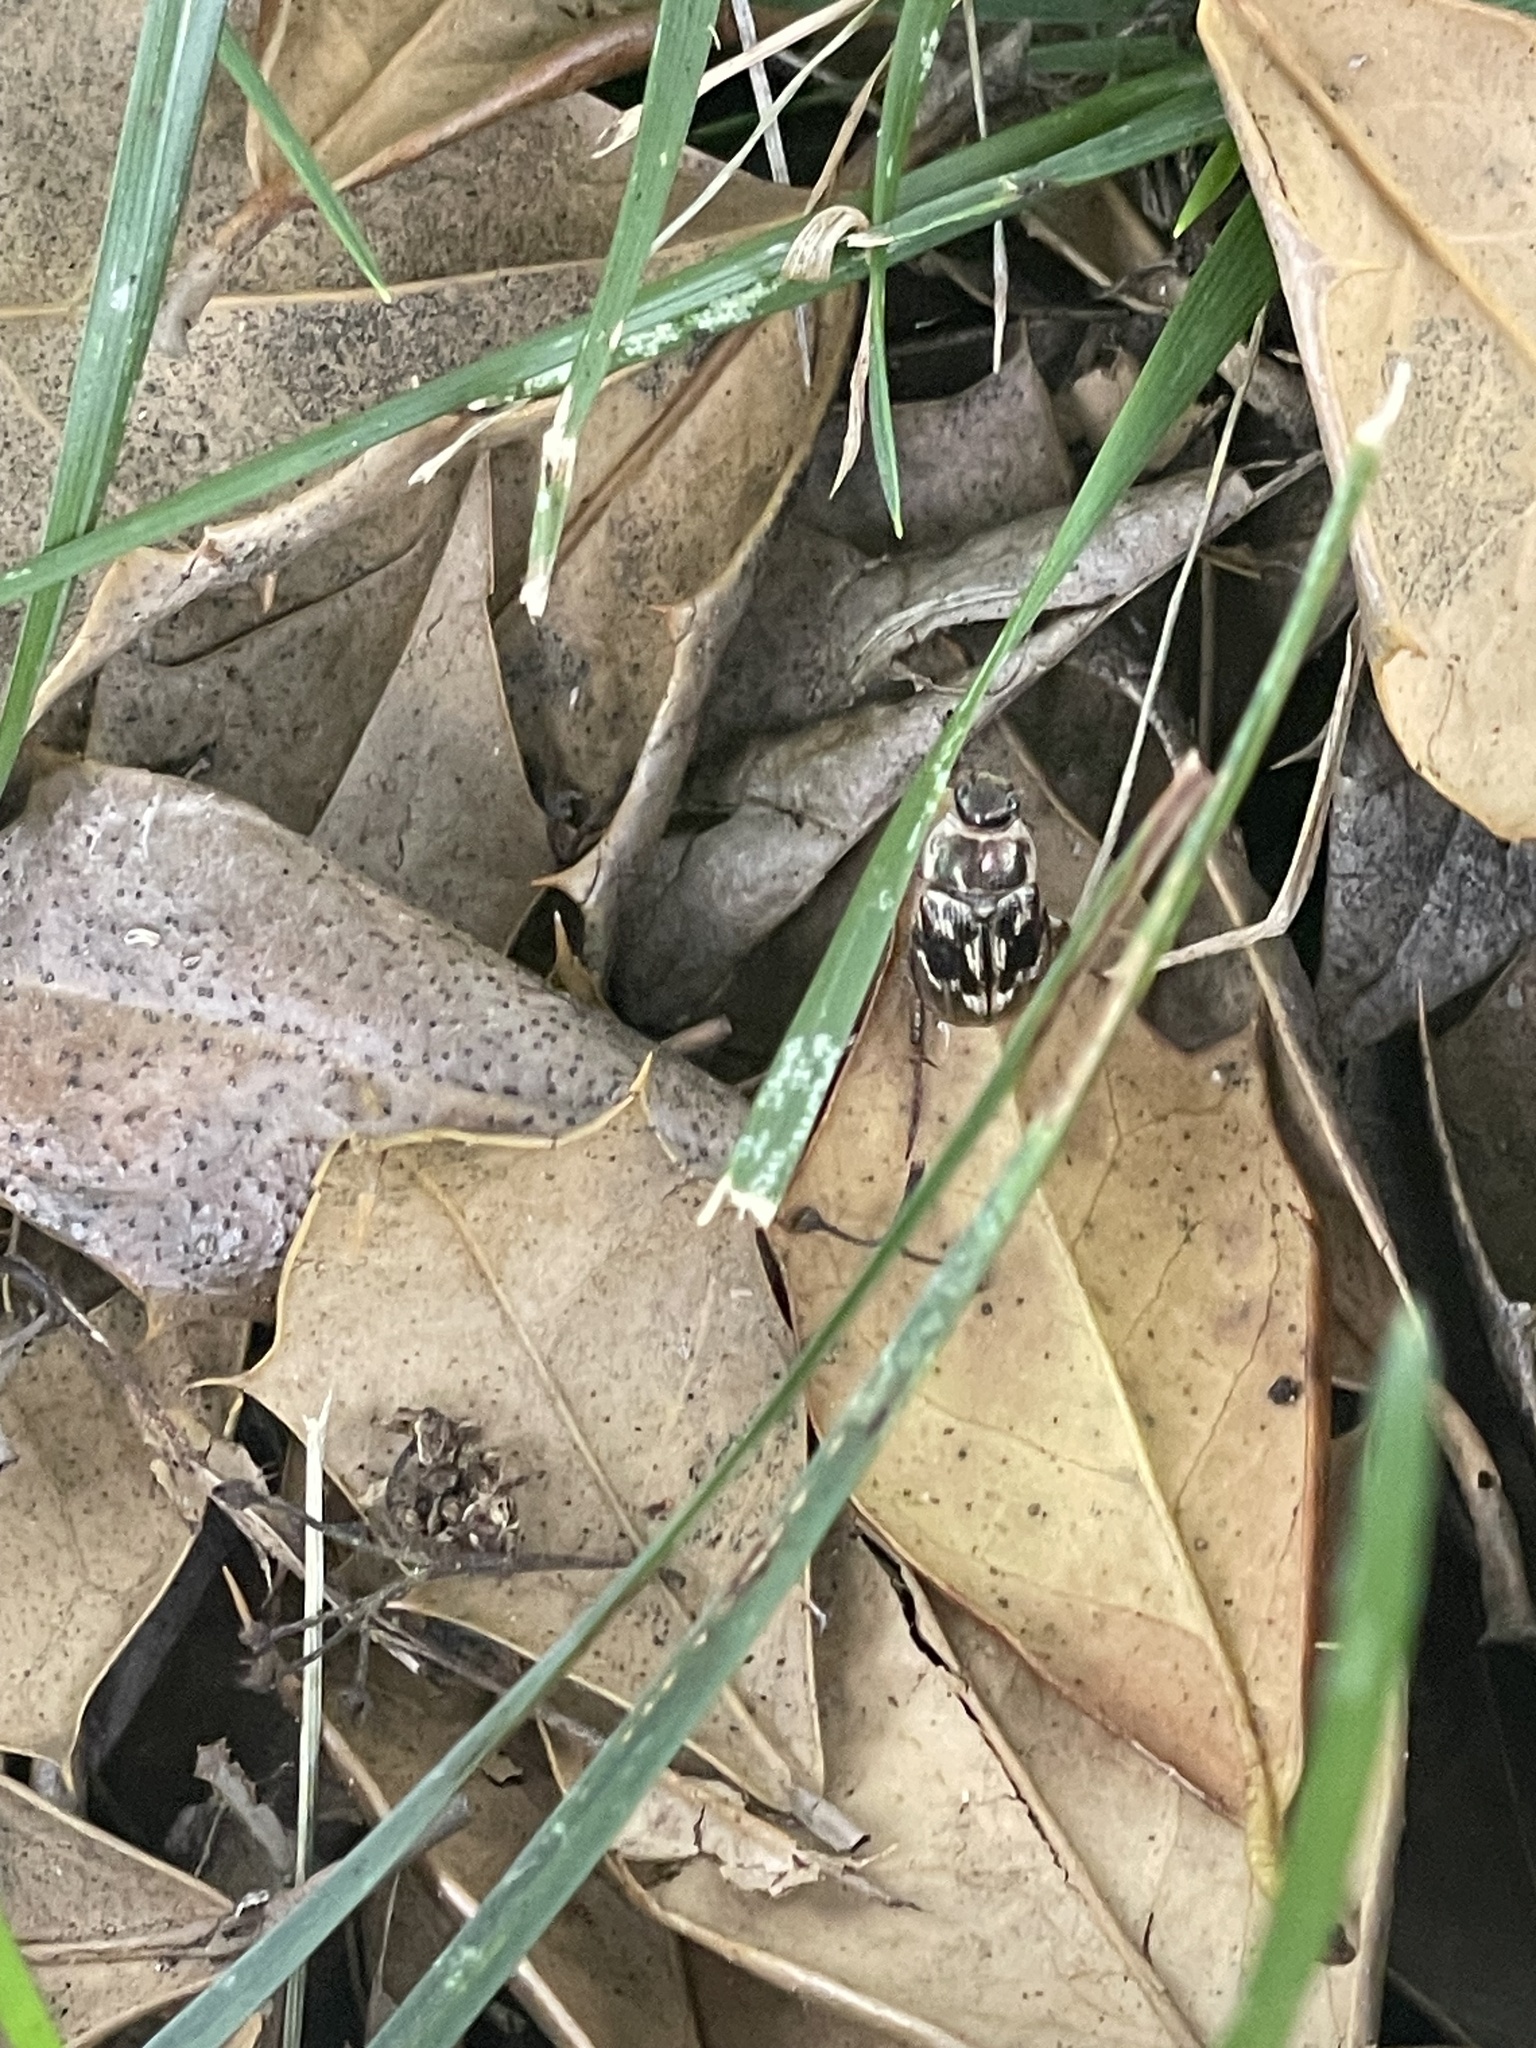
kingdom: Animalia
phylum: Arthropoda
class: Insecta
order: Coleoptera
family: Scarabaeidae
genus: Exomala
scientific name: Exomala orientalis
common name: Oriental beetle
